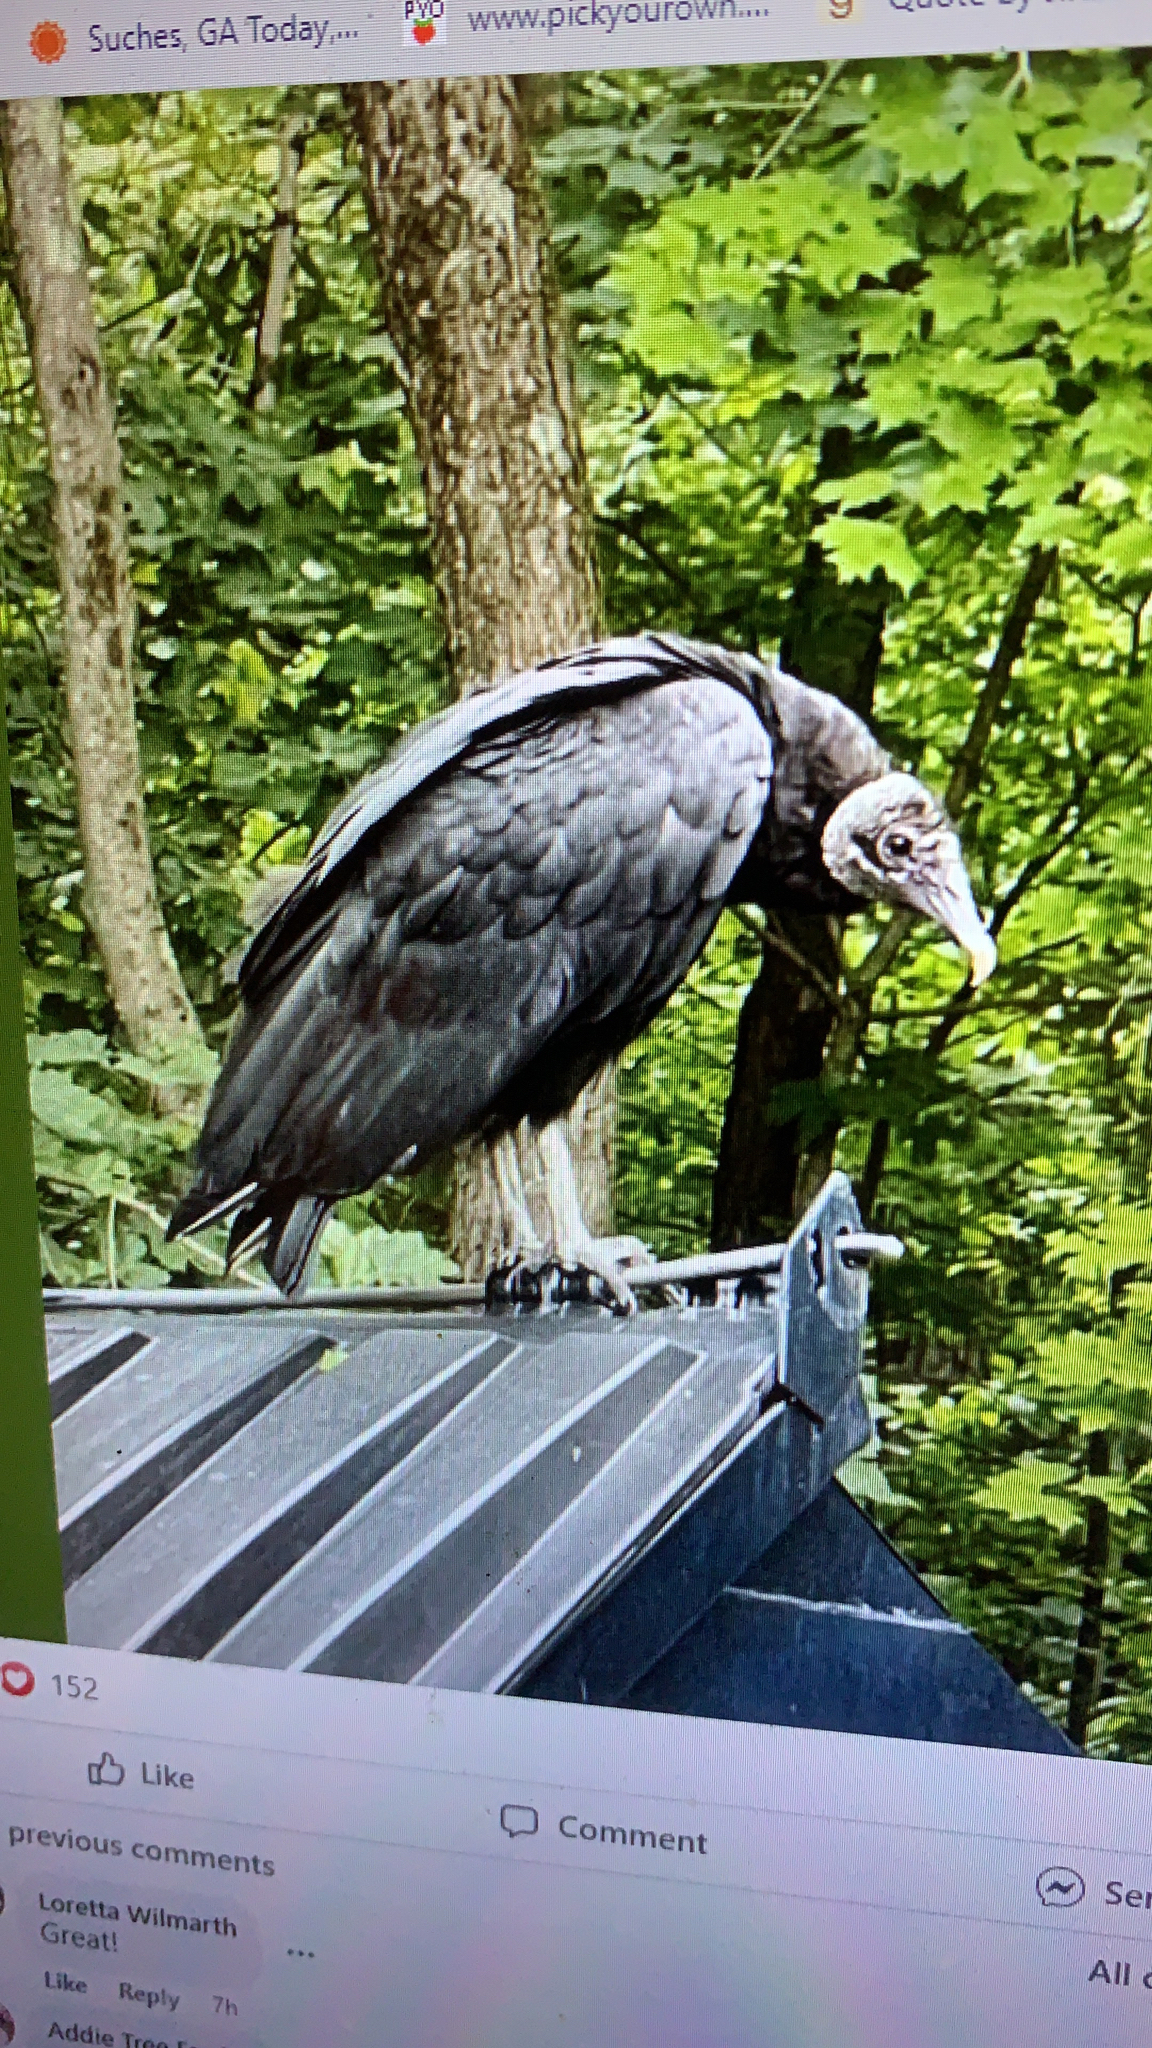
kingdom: Animalia
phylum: Chordata
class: Aves
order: Accipitriformes
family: Cathartidae
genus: Coragyps
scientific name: Coragyps atratus
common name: Black vulture
